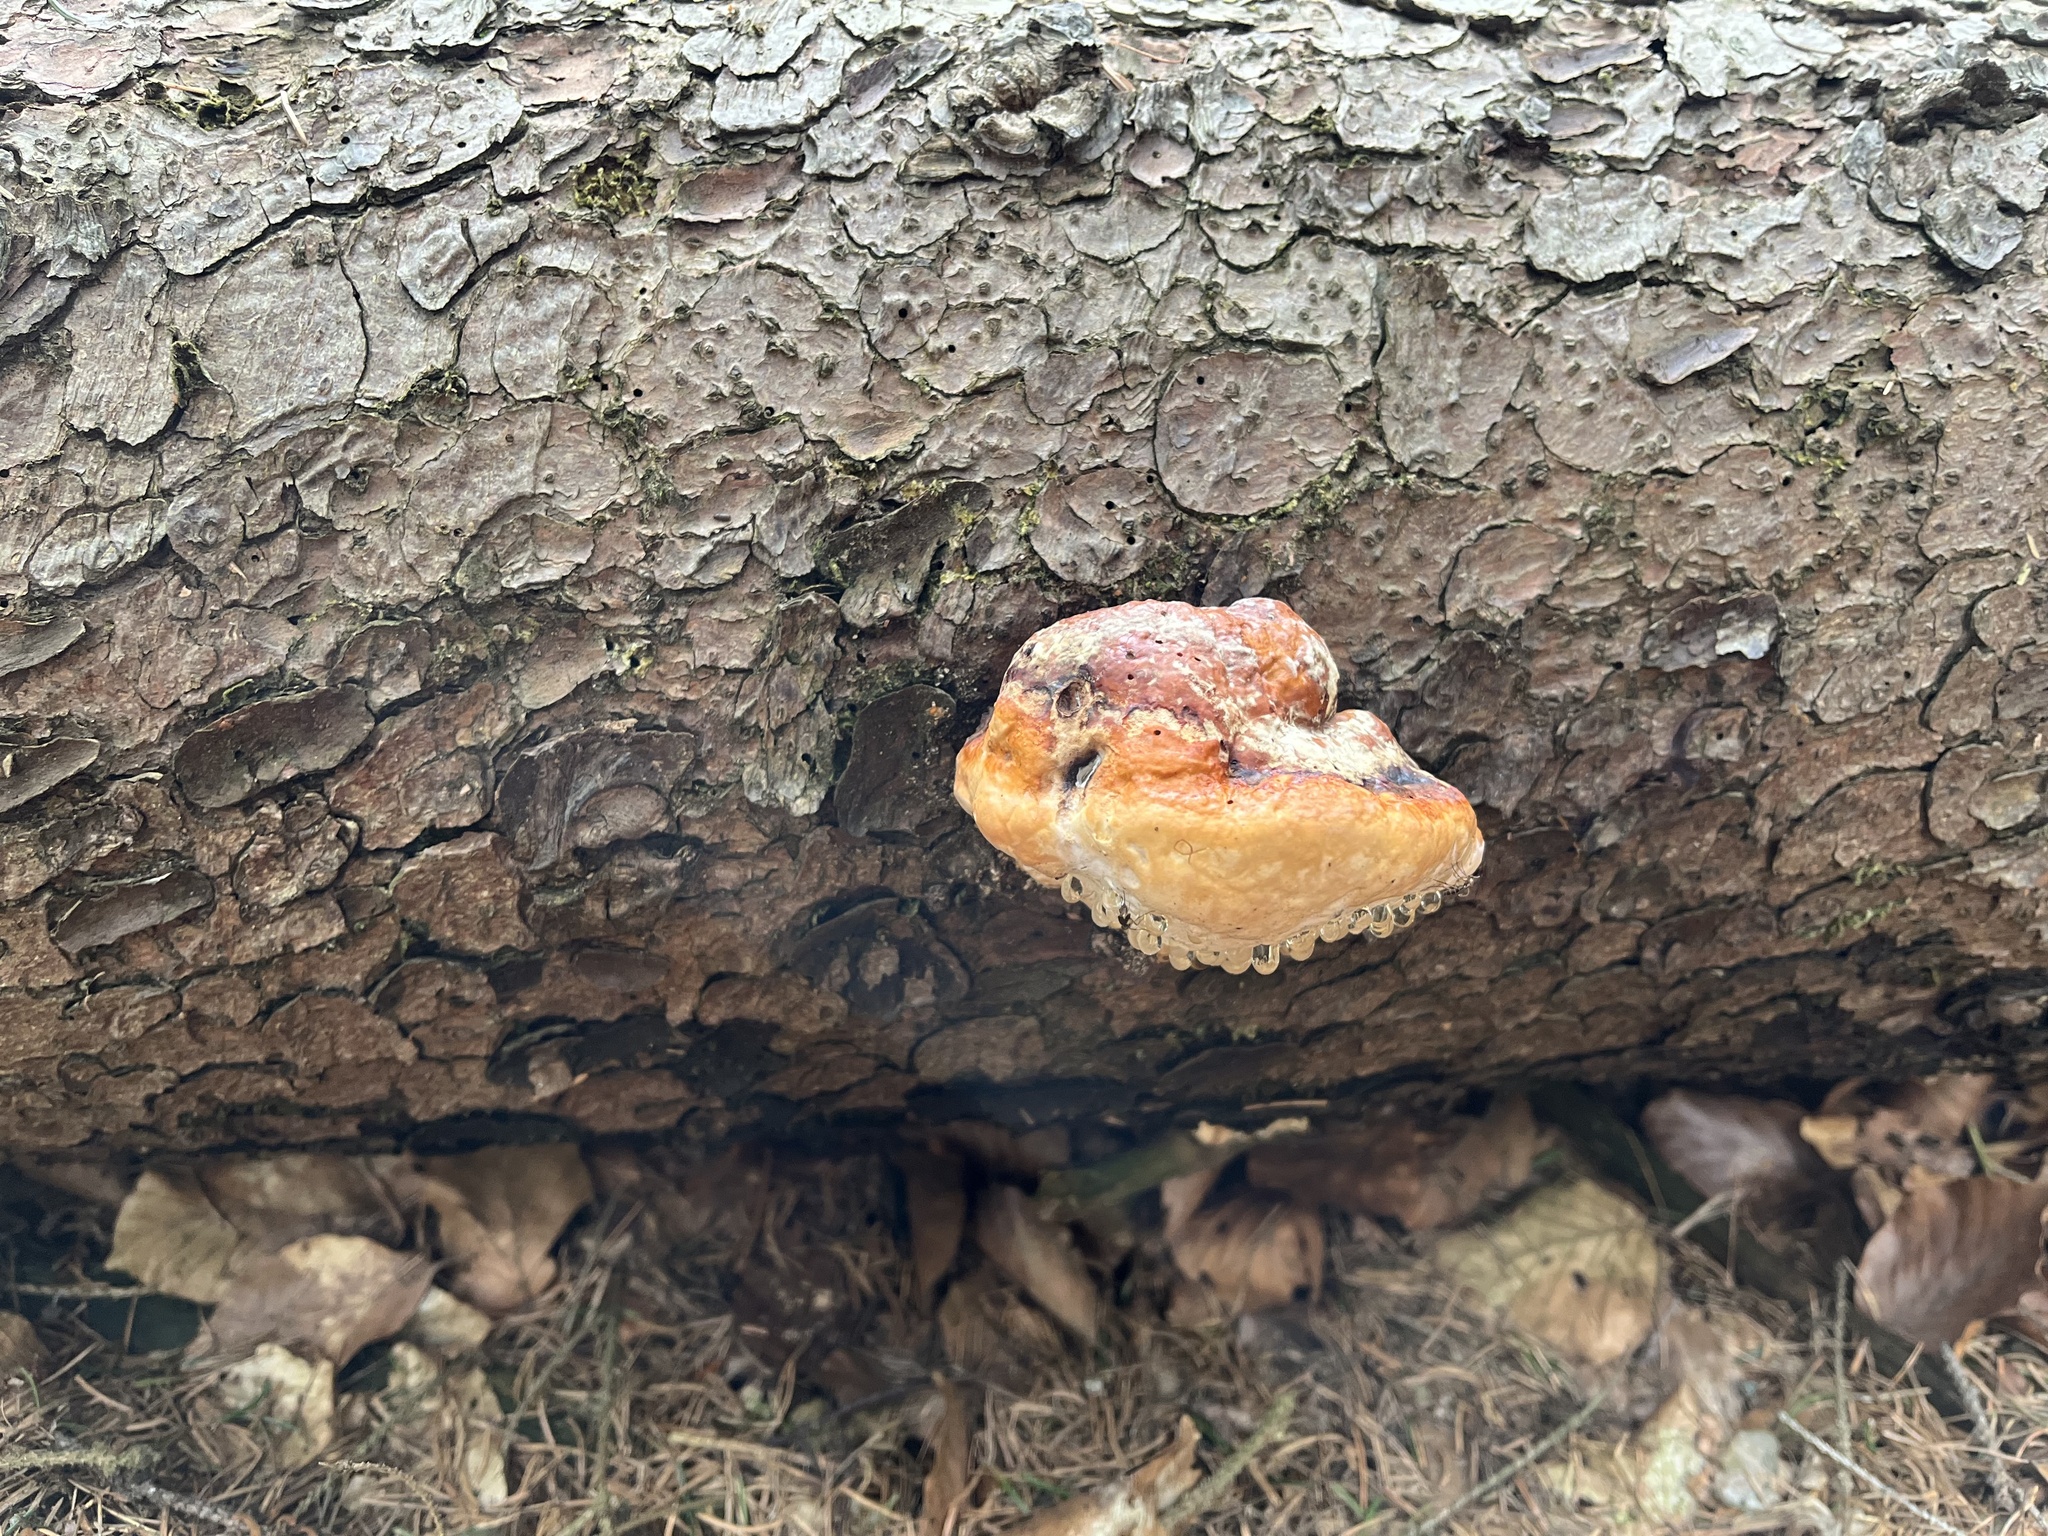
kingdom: Fungi
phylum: Basidiomycota
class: Agaricomycetes
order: Polyporales
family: Fomitopsidaceae
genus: Fomitopsis
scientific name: Fomitopsis pinicola
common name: Red-belted bracket
